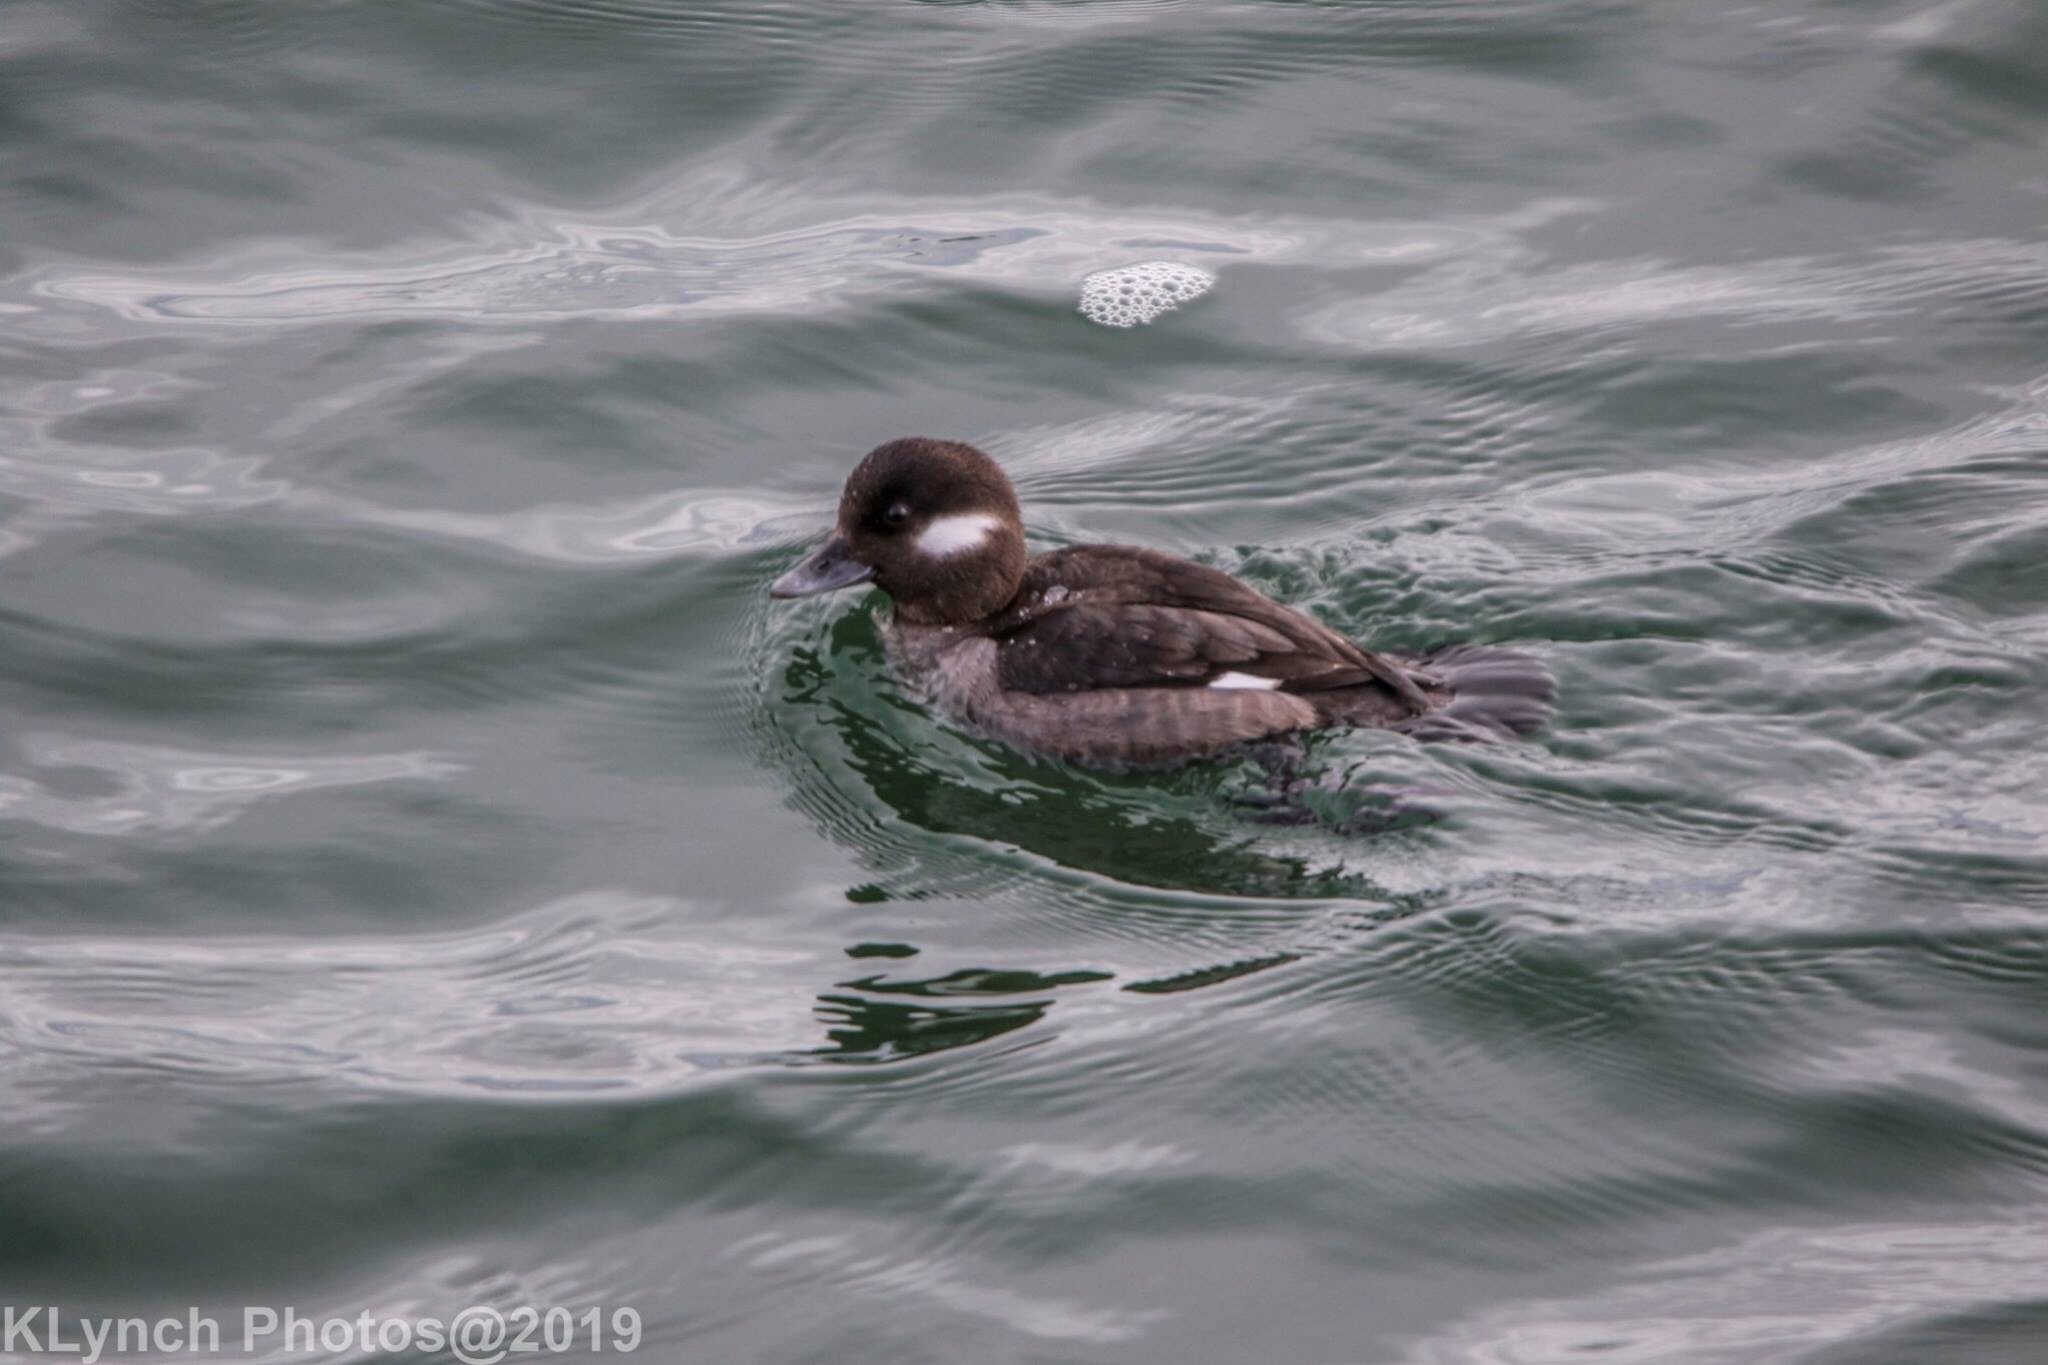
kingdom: Animalia
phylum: Chordata
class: Aves
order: Anseriformes
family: Anatidae
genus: Bucephala
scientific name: Bucephala albeola
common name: Bufflehead
